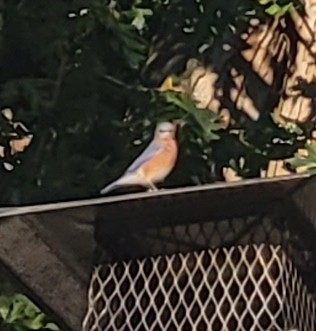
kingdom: Animalia
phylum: Chordata
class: Aves
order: Passeriformes
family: Turdidae
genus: Sialia
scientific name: Sialia sialis
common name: Eastern bluebird
